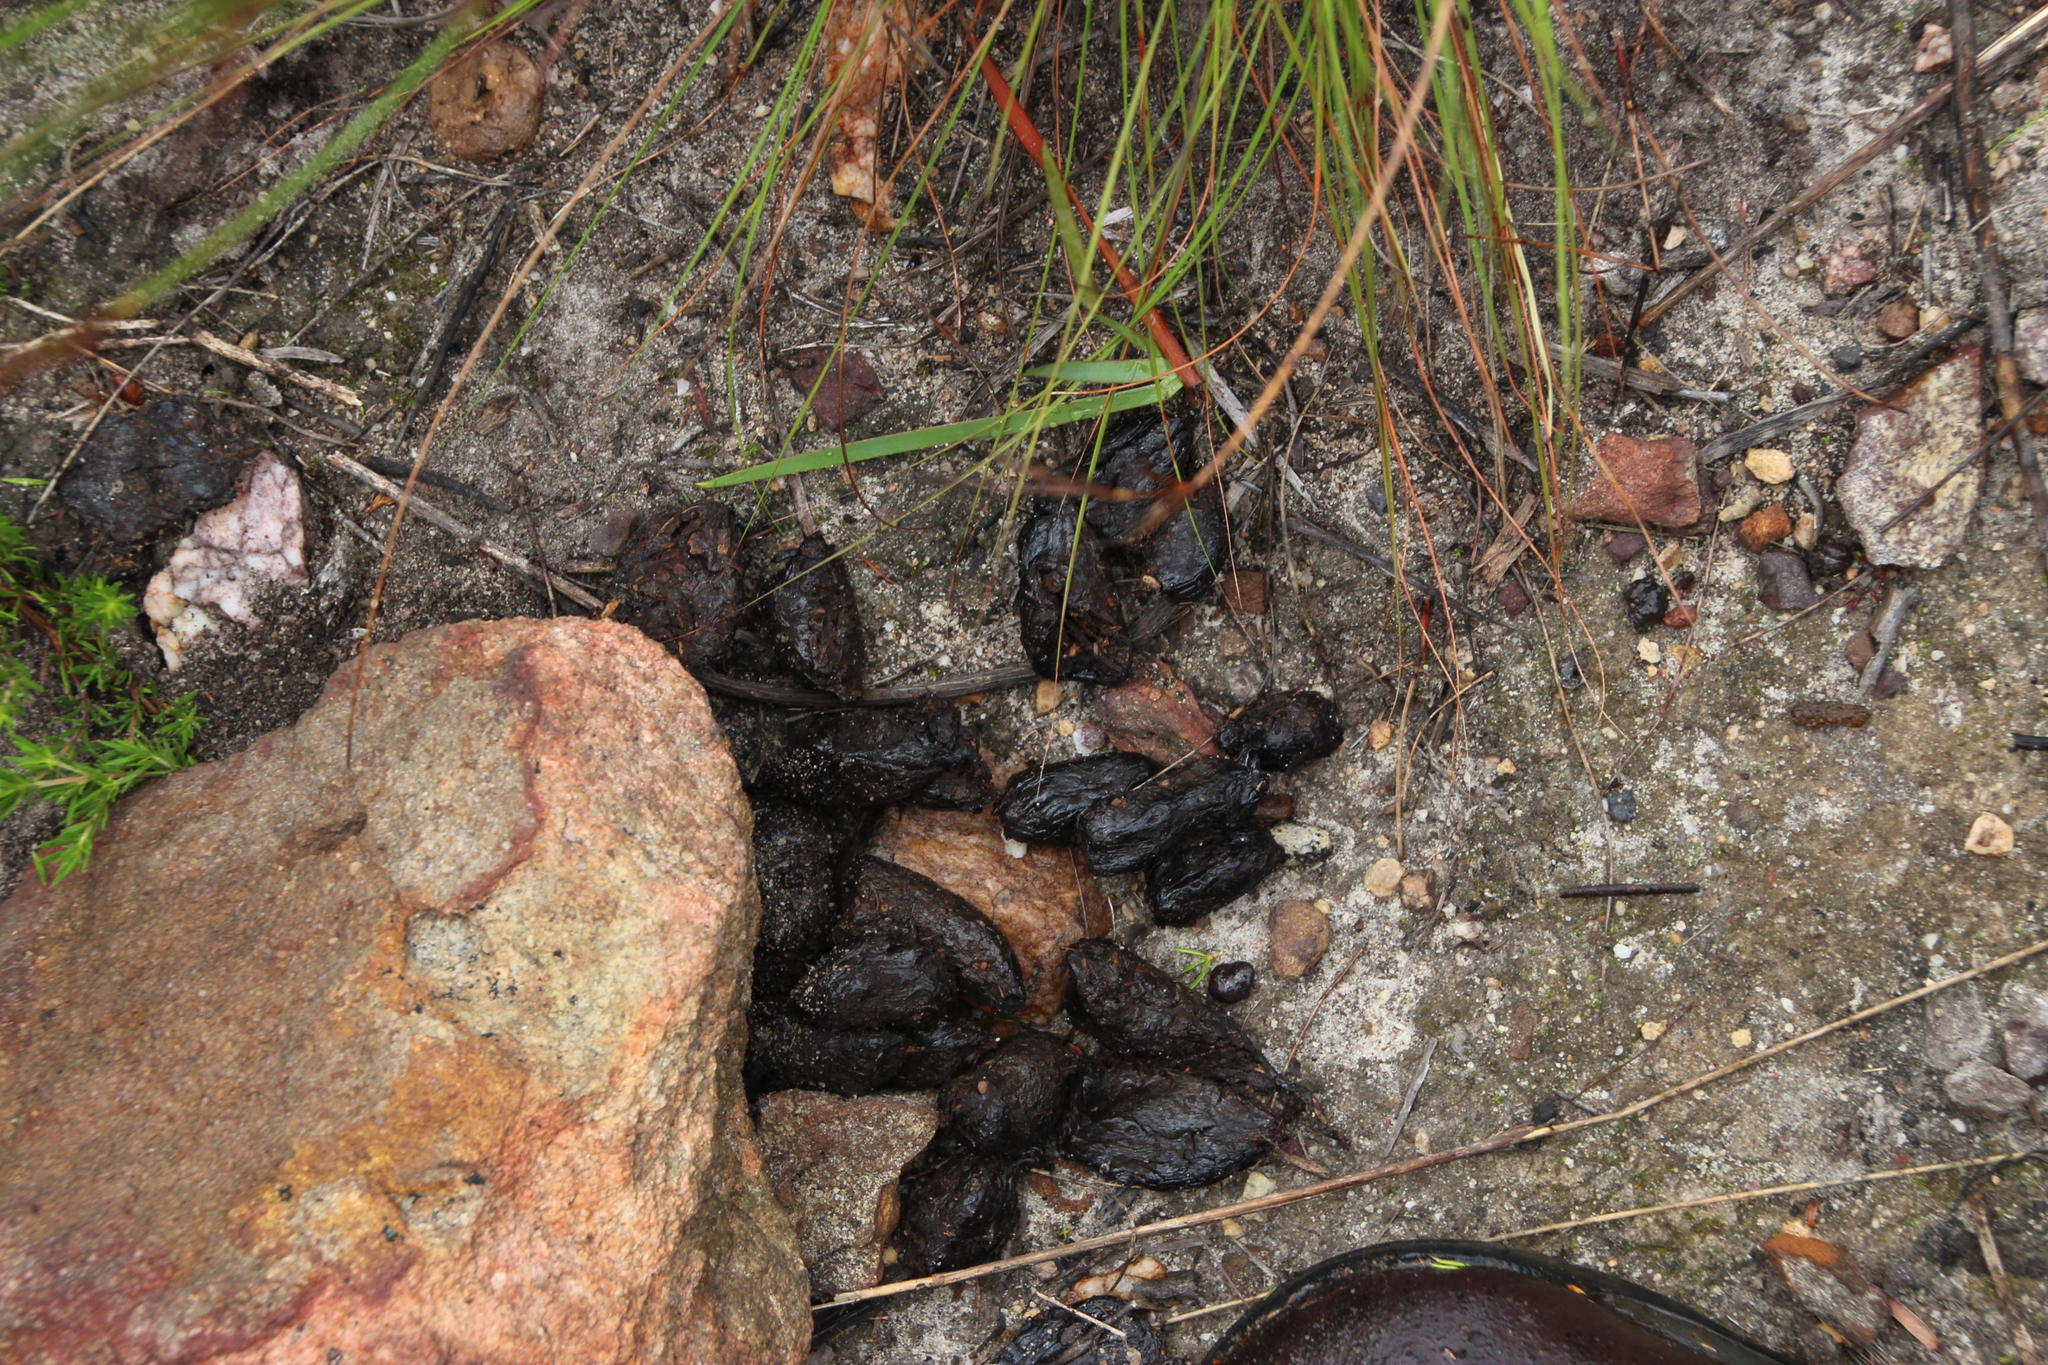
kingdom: Animalia
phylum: Chordata
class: Mammalia
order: Rodentia
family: Hystricidae
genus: Hystrix
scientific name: Hystrix africaeaustralis
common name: Cape porcupine
